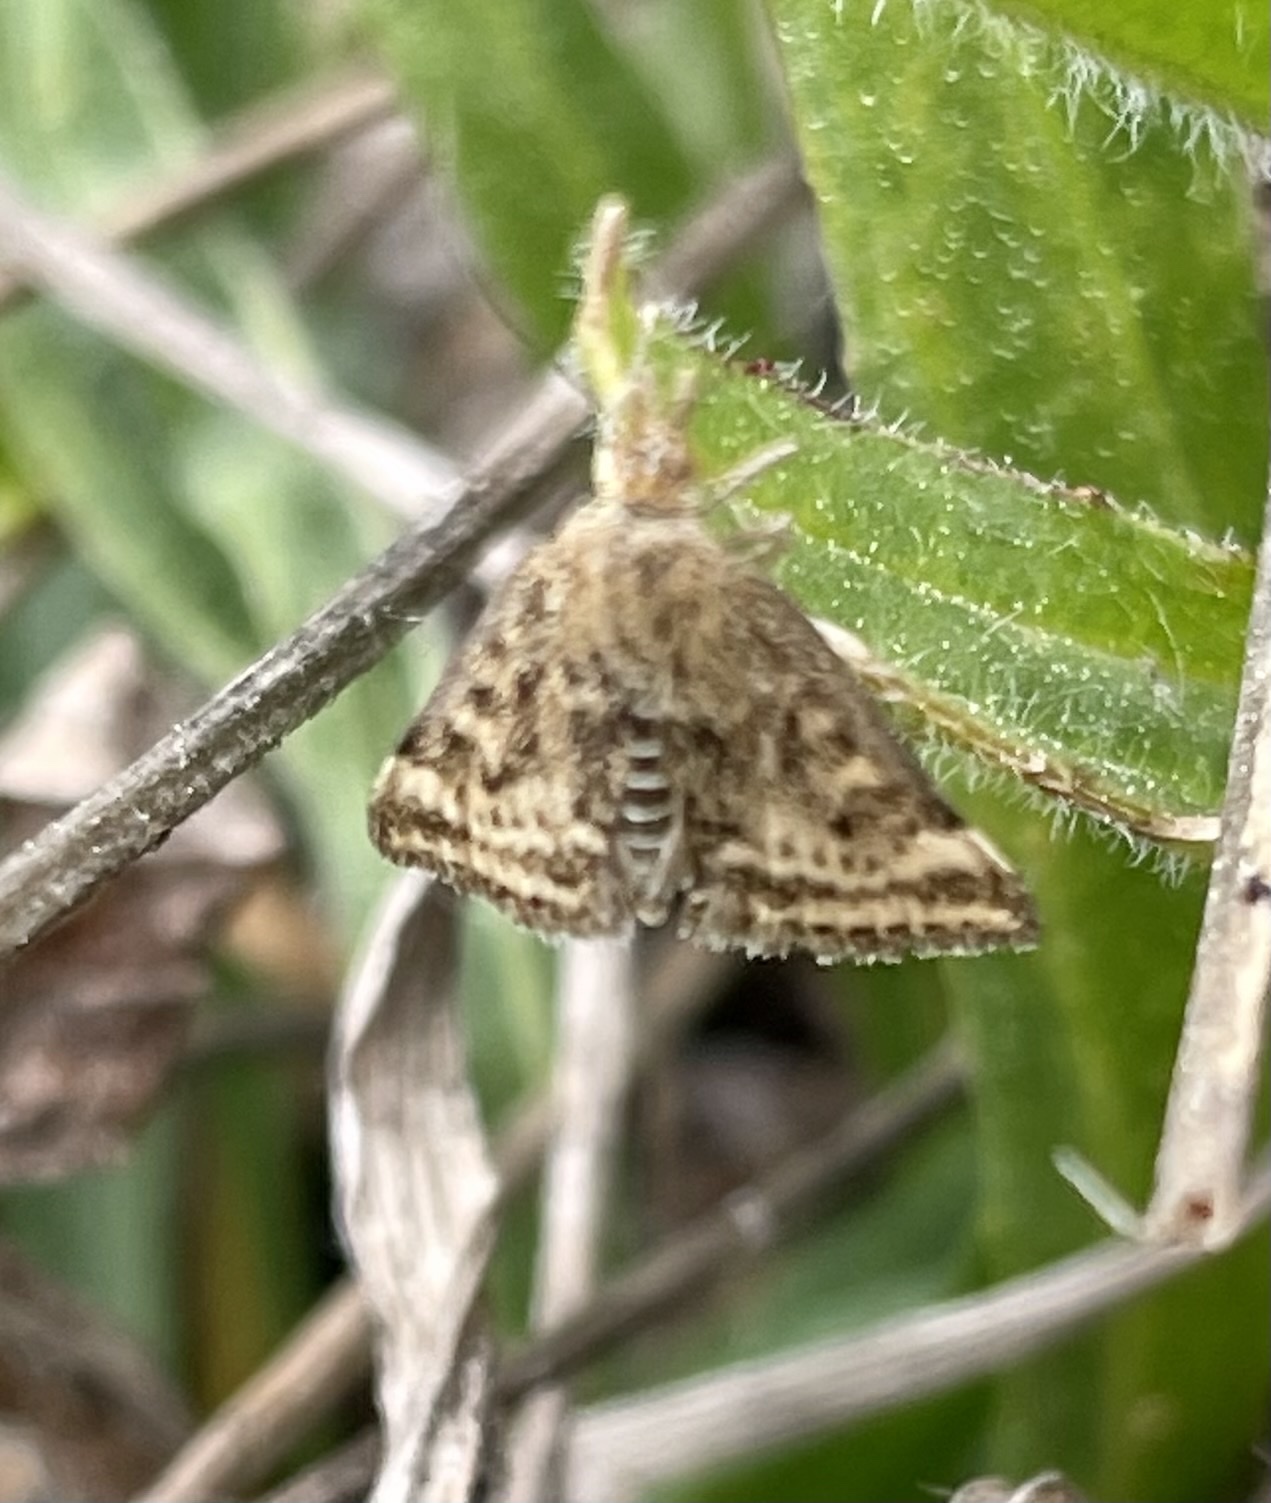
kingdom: Animalia
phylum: Arthropoda
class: Insecta
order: Lepidoptera
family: Crambidae
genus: Pyrausta
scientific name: Pyrausta despicata
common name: Straw-barred pearl
